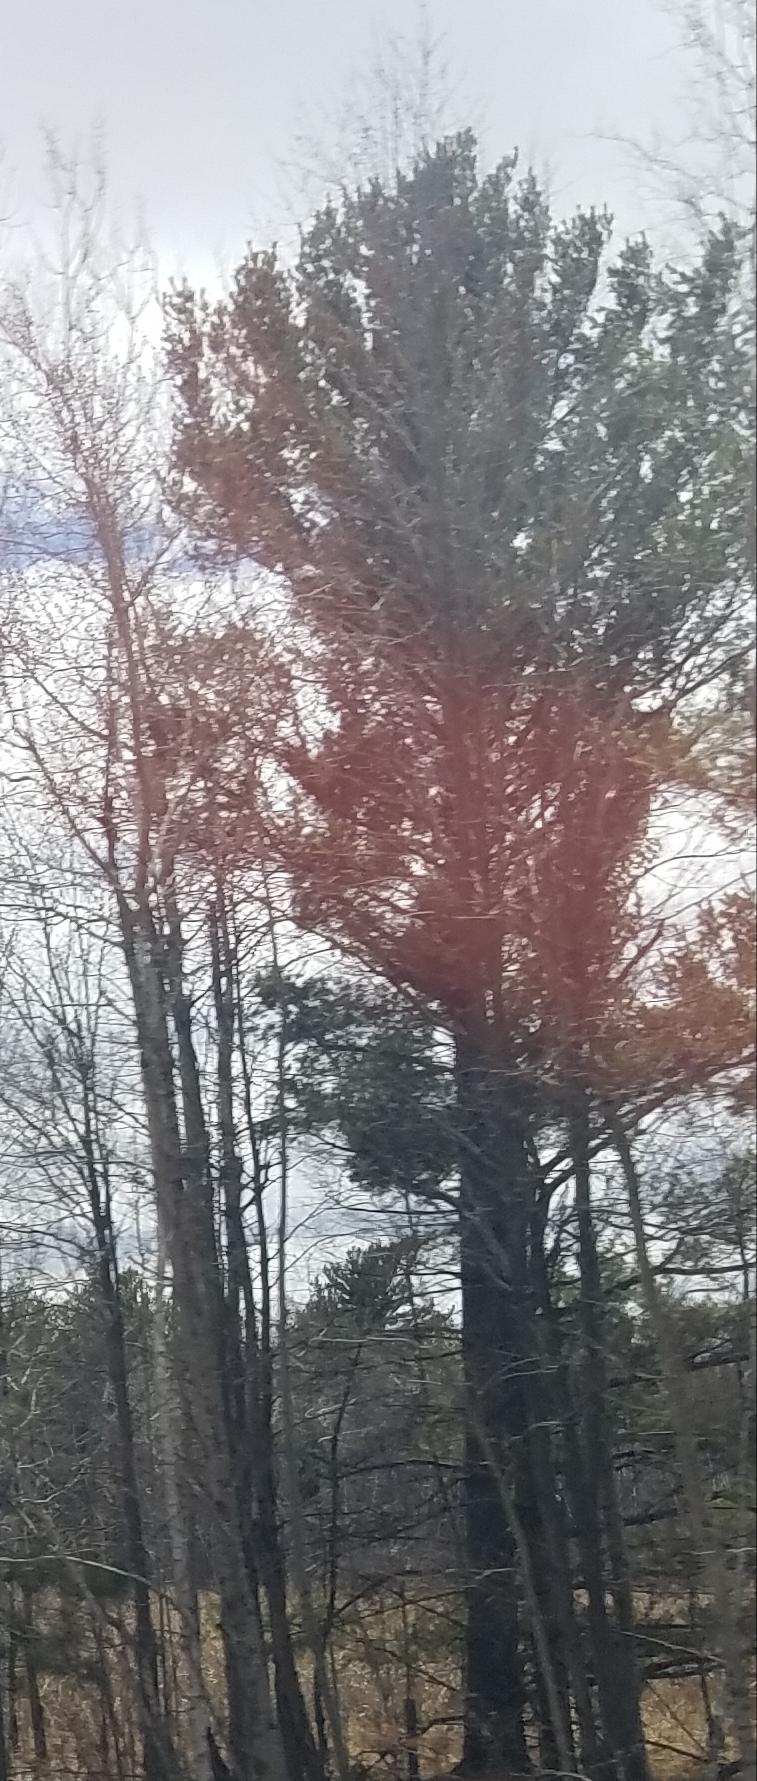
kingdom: Plantae
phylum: Tracheophyta
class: Pinopsida
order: Pinales
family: Pinaceae
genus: Pinus
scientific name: Pinus strobus
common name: Weymouth pine
